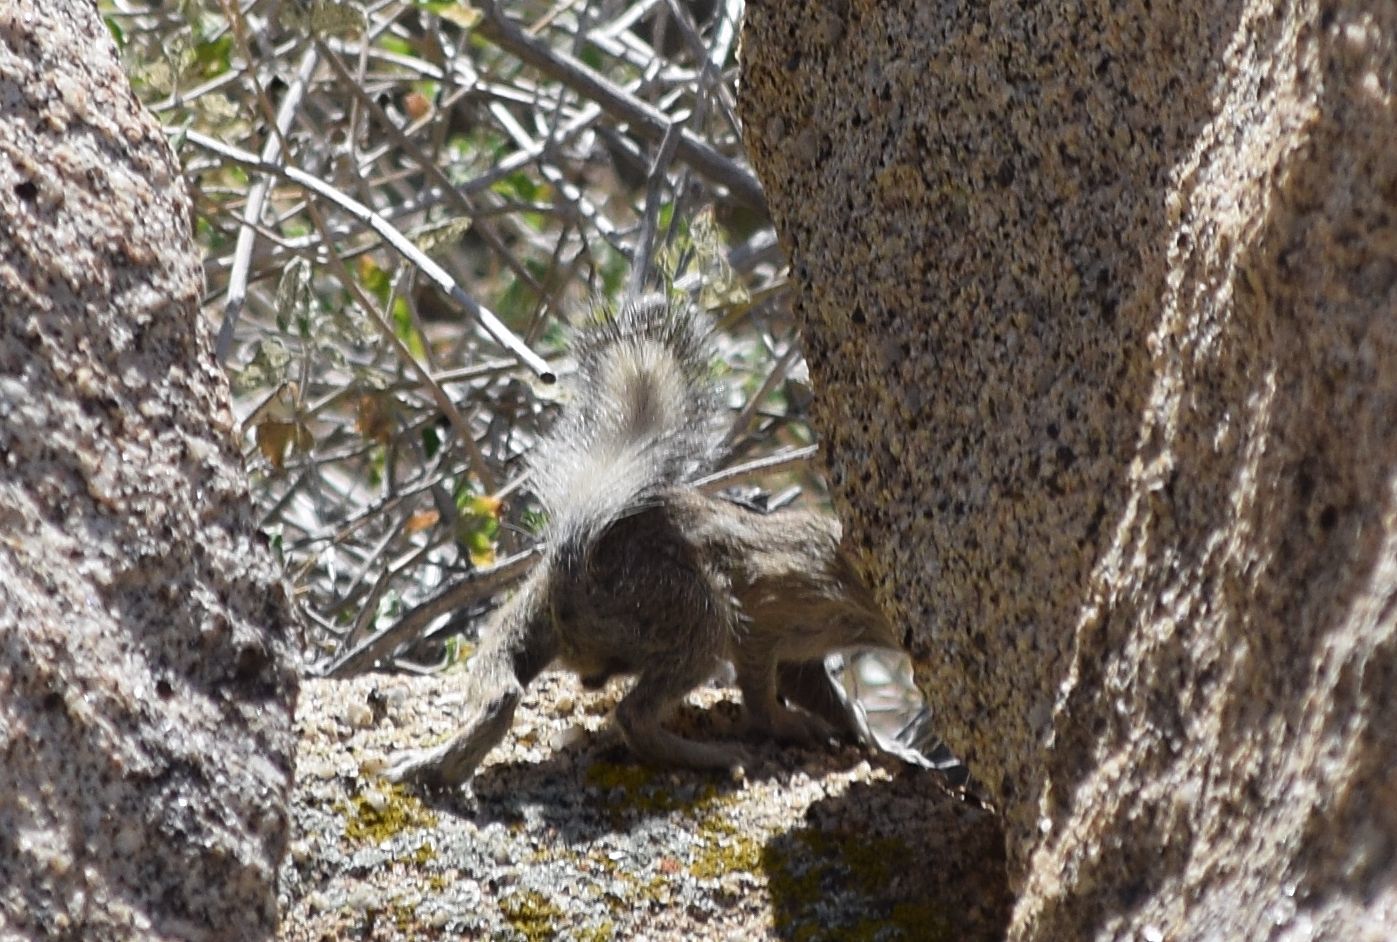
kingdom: Animalia
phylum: Chordata
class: Mammalia
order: Rodentia
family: Sciuridae
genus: Ammospermophilus
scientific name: Ammospermophilus leucurus
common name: White-tailed antelope squirrel
